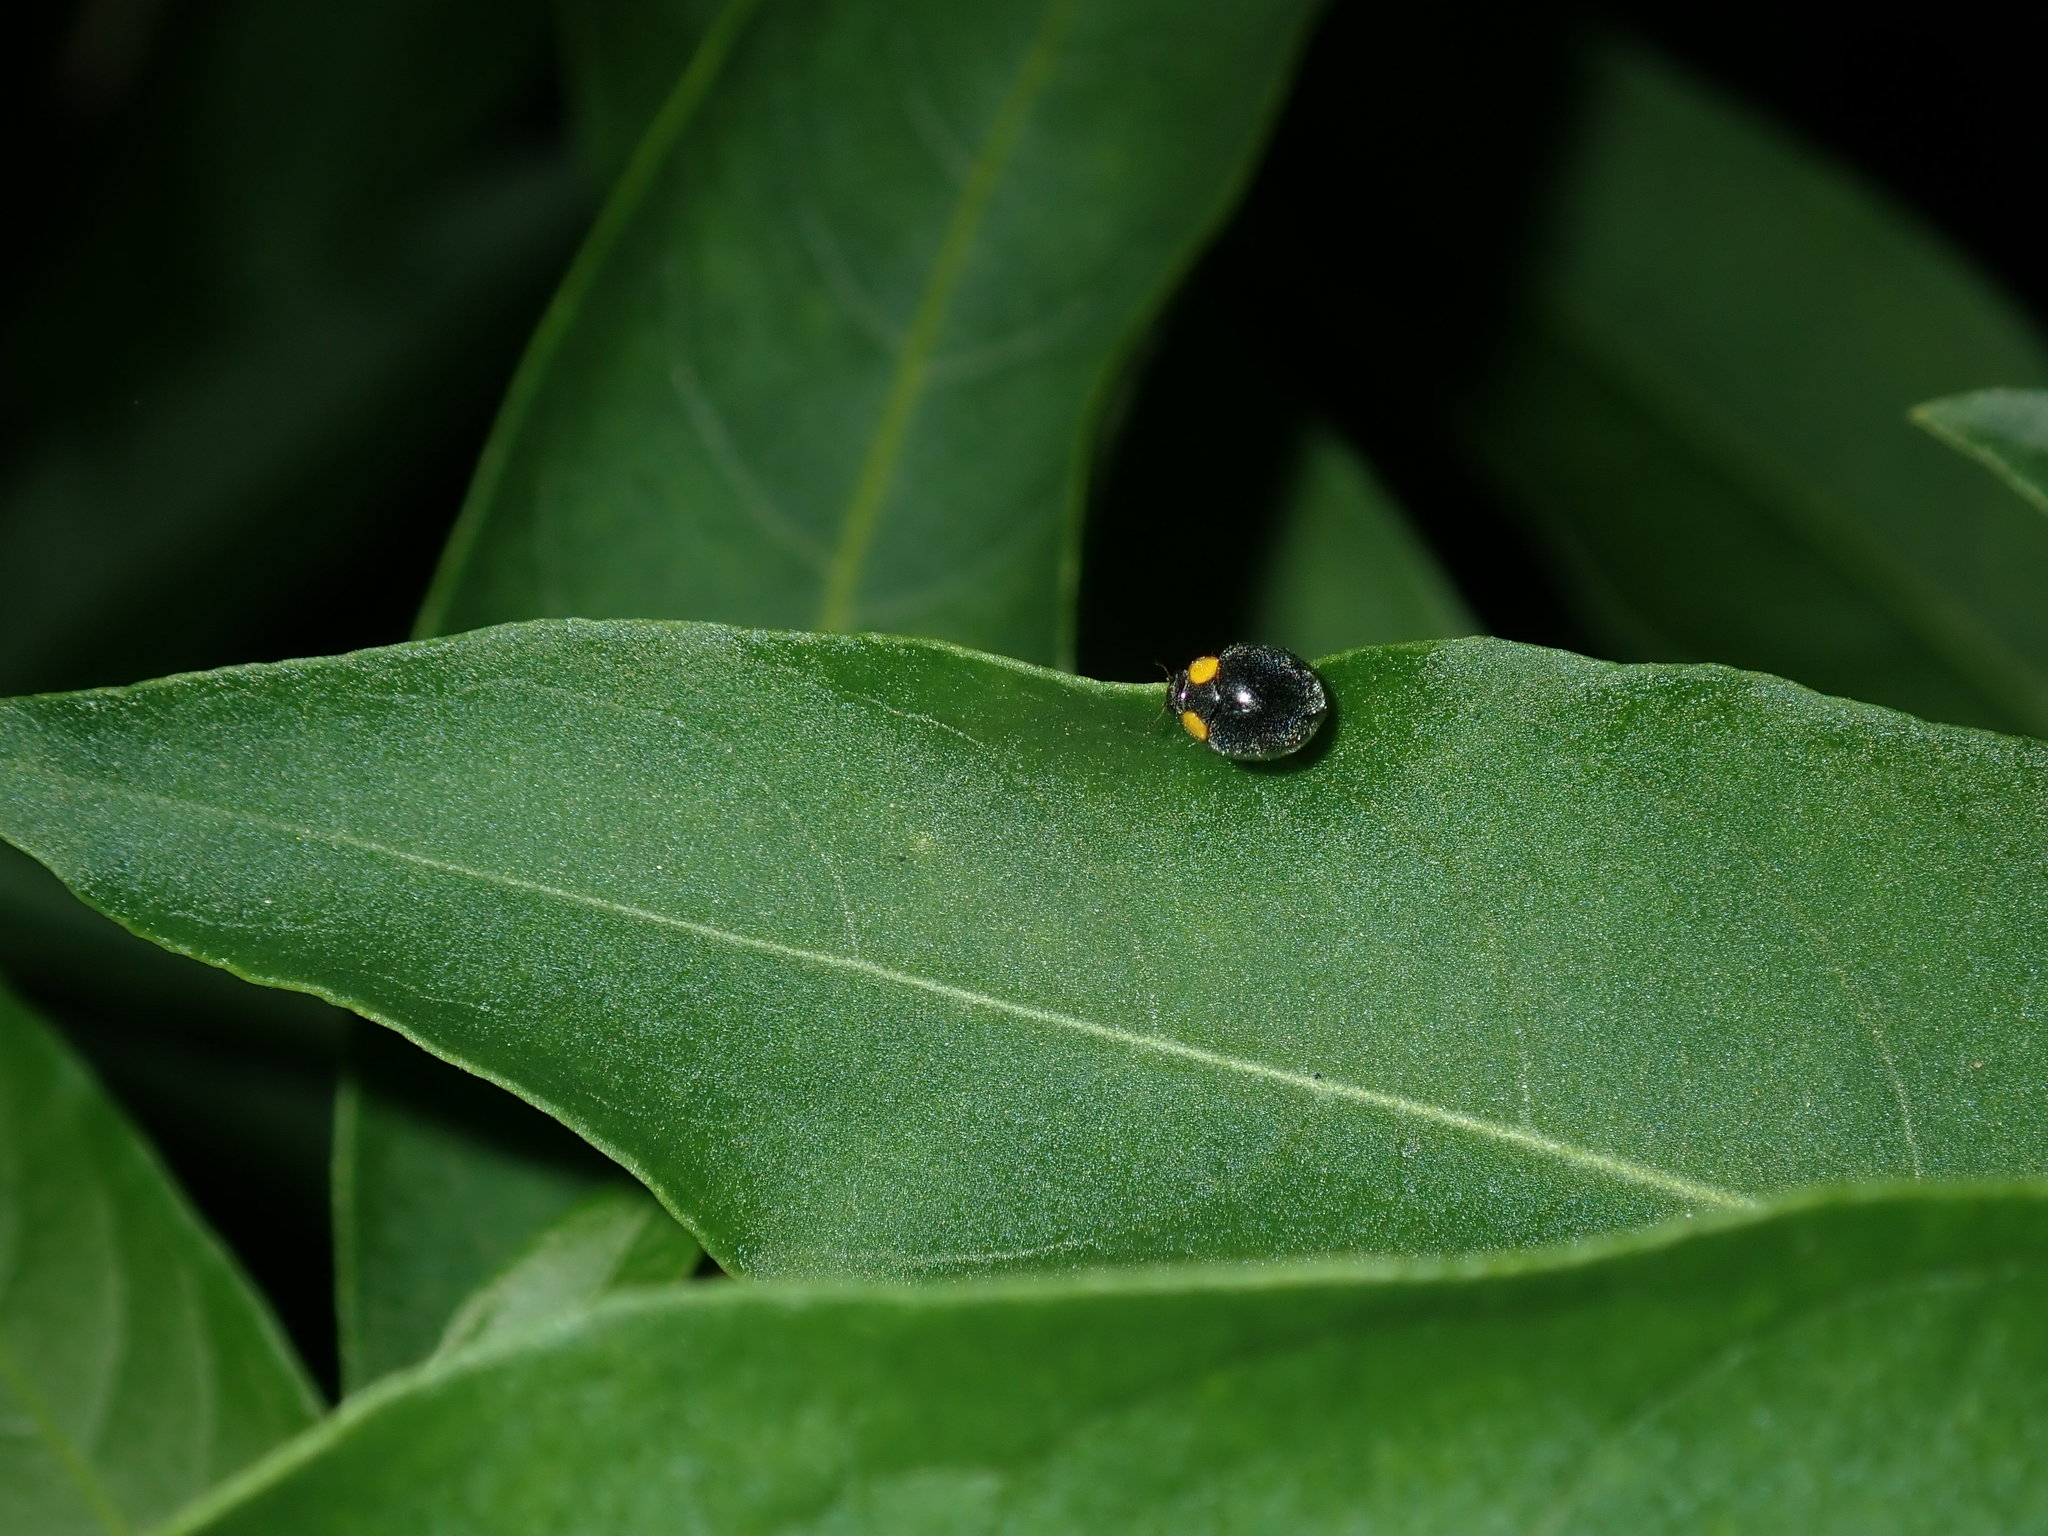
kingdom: Animalia
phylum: Arthropoda
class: Insecta
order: Coleoptera
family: Coccinellidae
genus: Scymnodes
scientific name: Scymnodes lividigaster
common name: Yellowshouldered lady beetle
